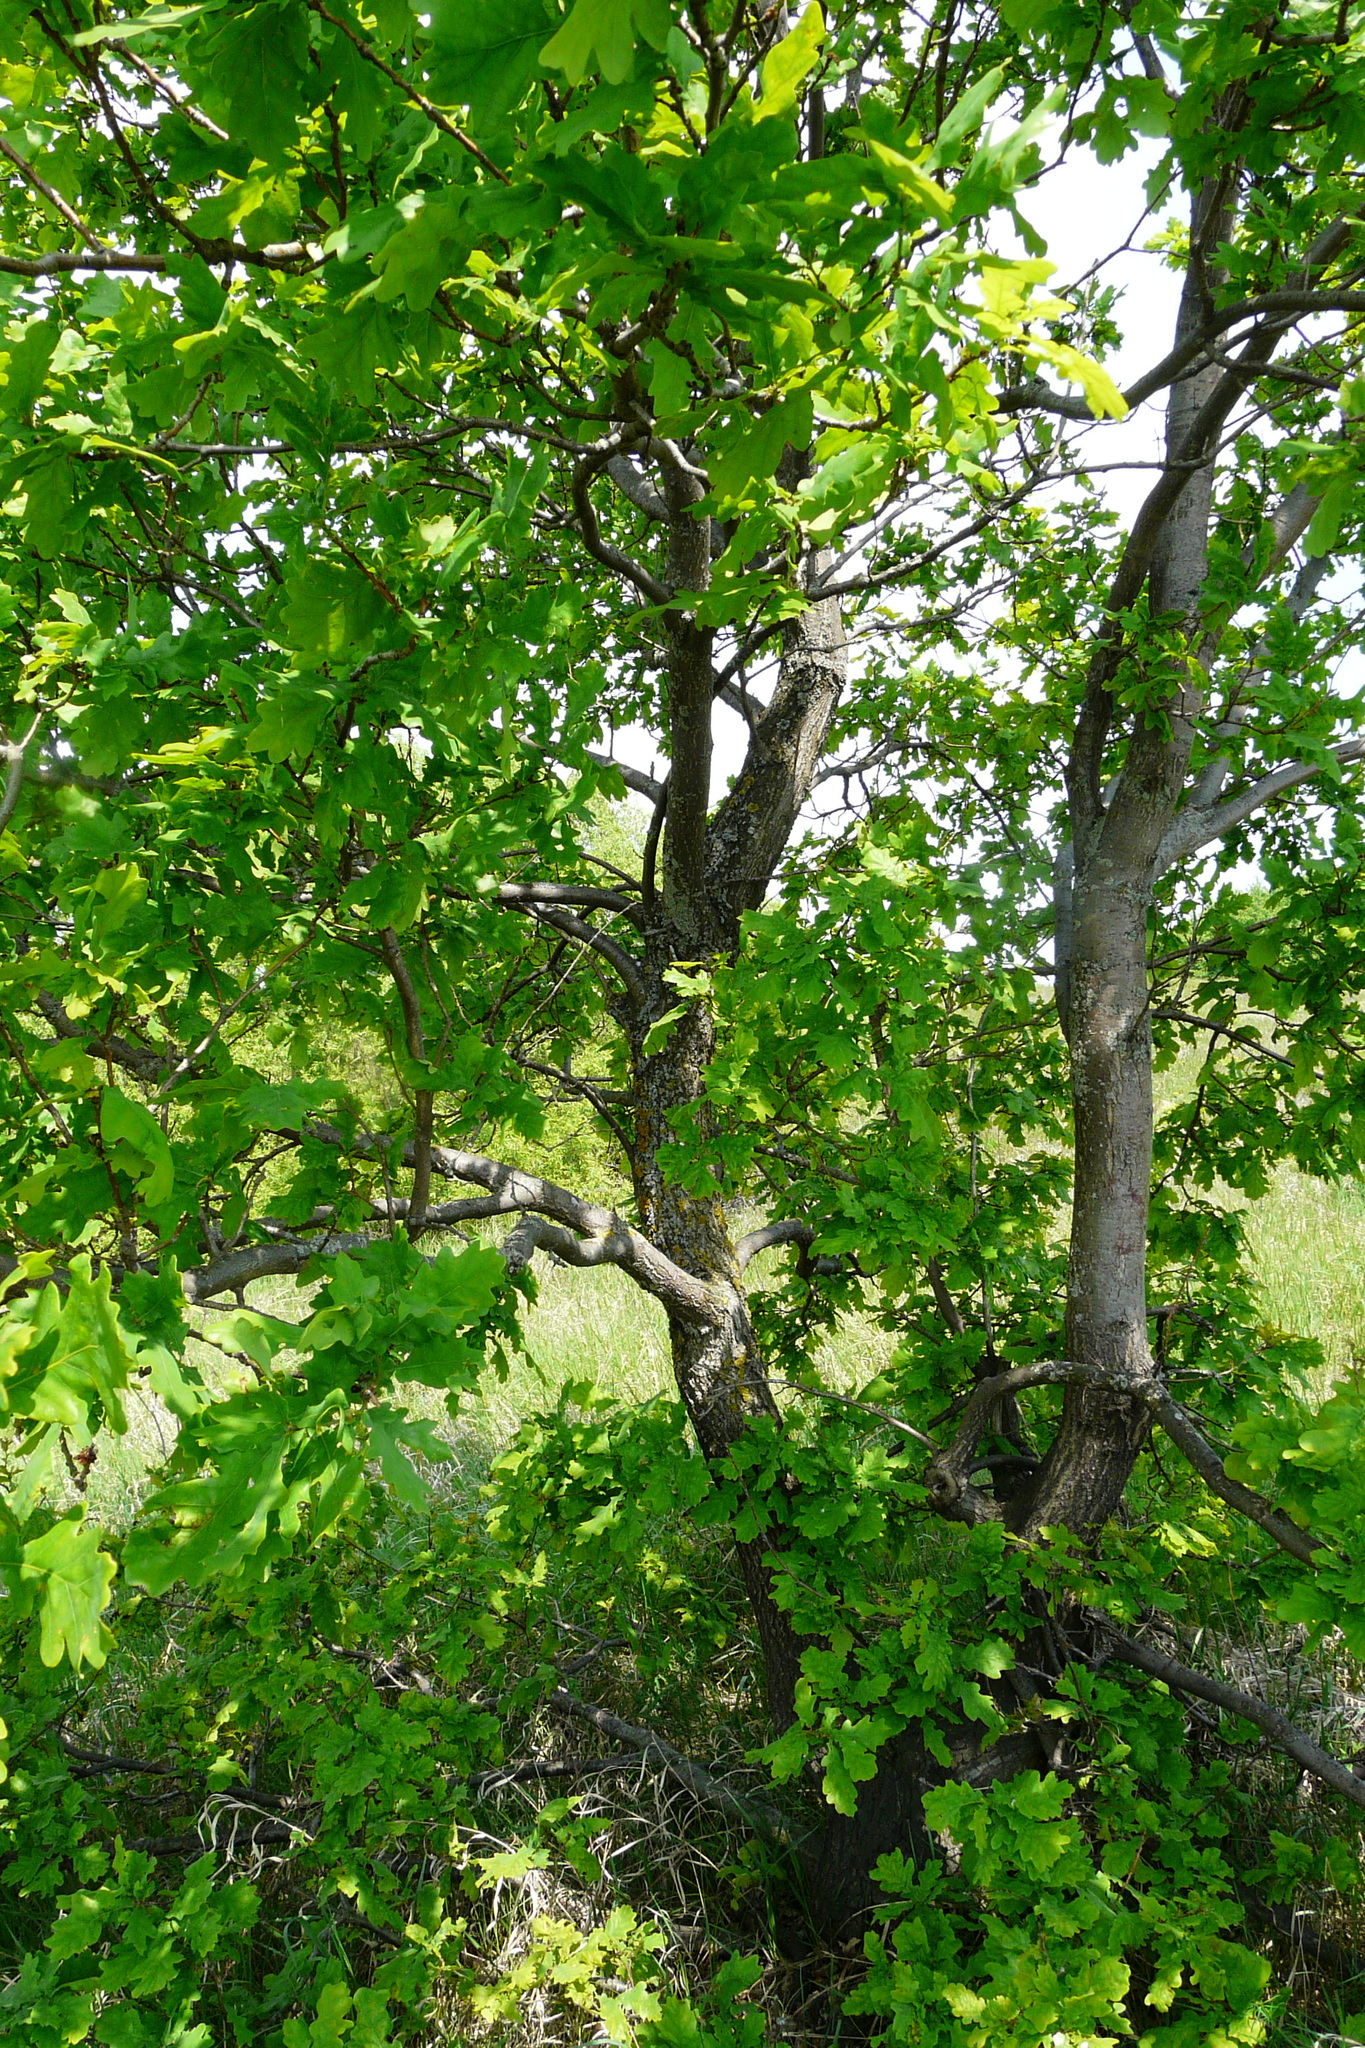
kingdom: Plantae
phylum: Tracheophyta
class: Magnoliopsida
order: Fagales
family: Fagaceae
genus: Quercus
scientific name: Quercus robur
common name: Pedunculate oak
